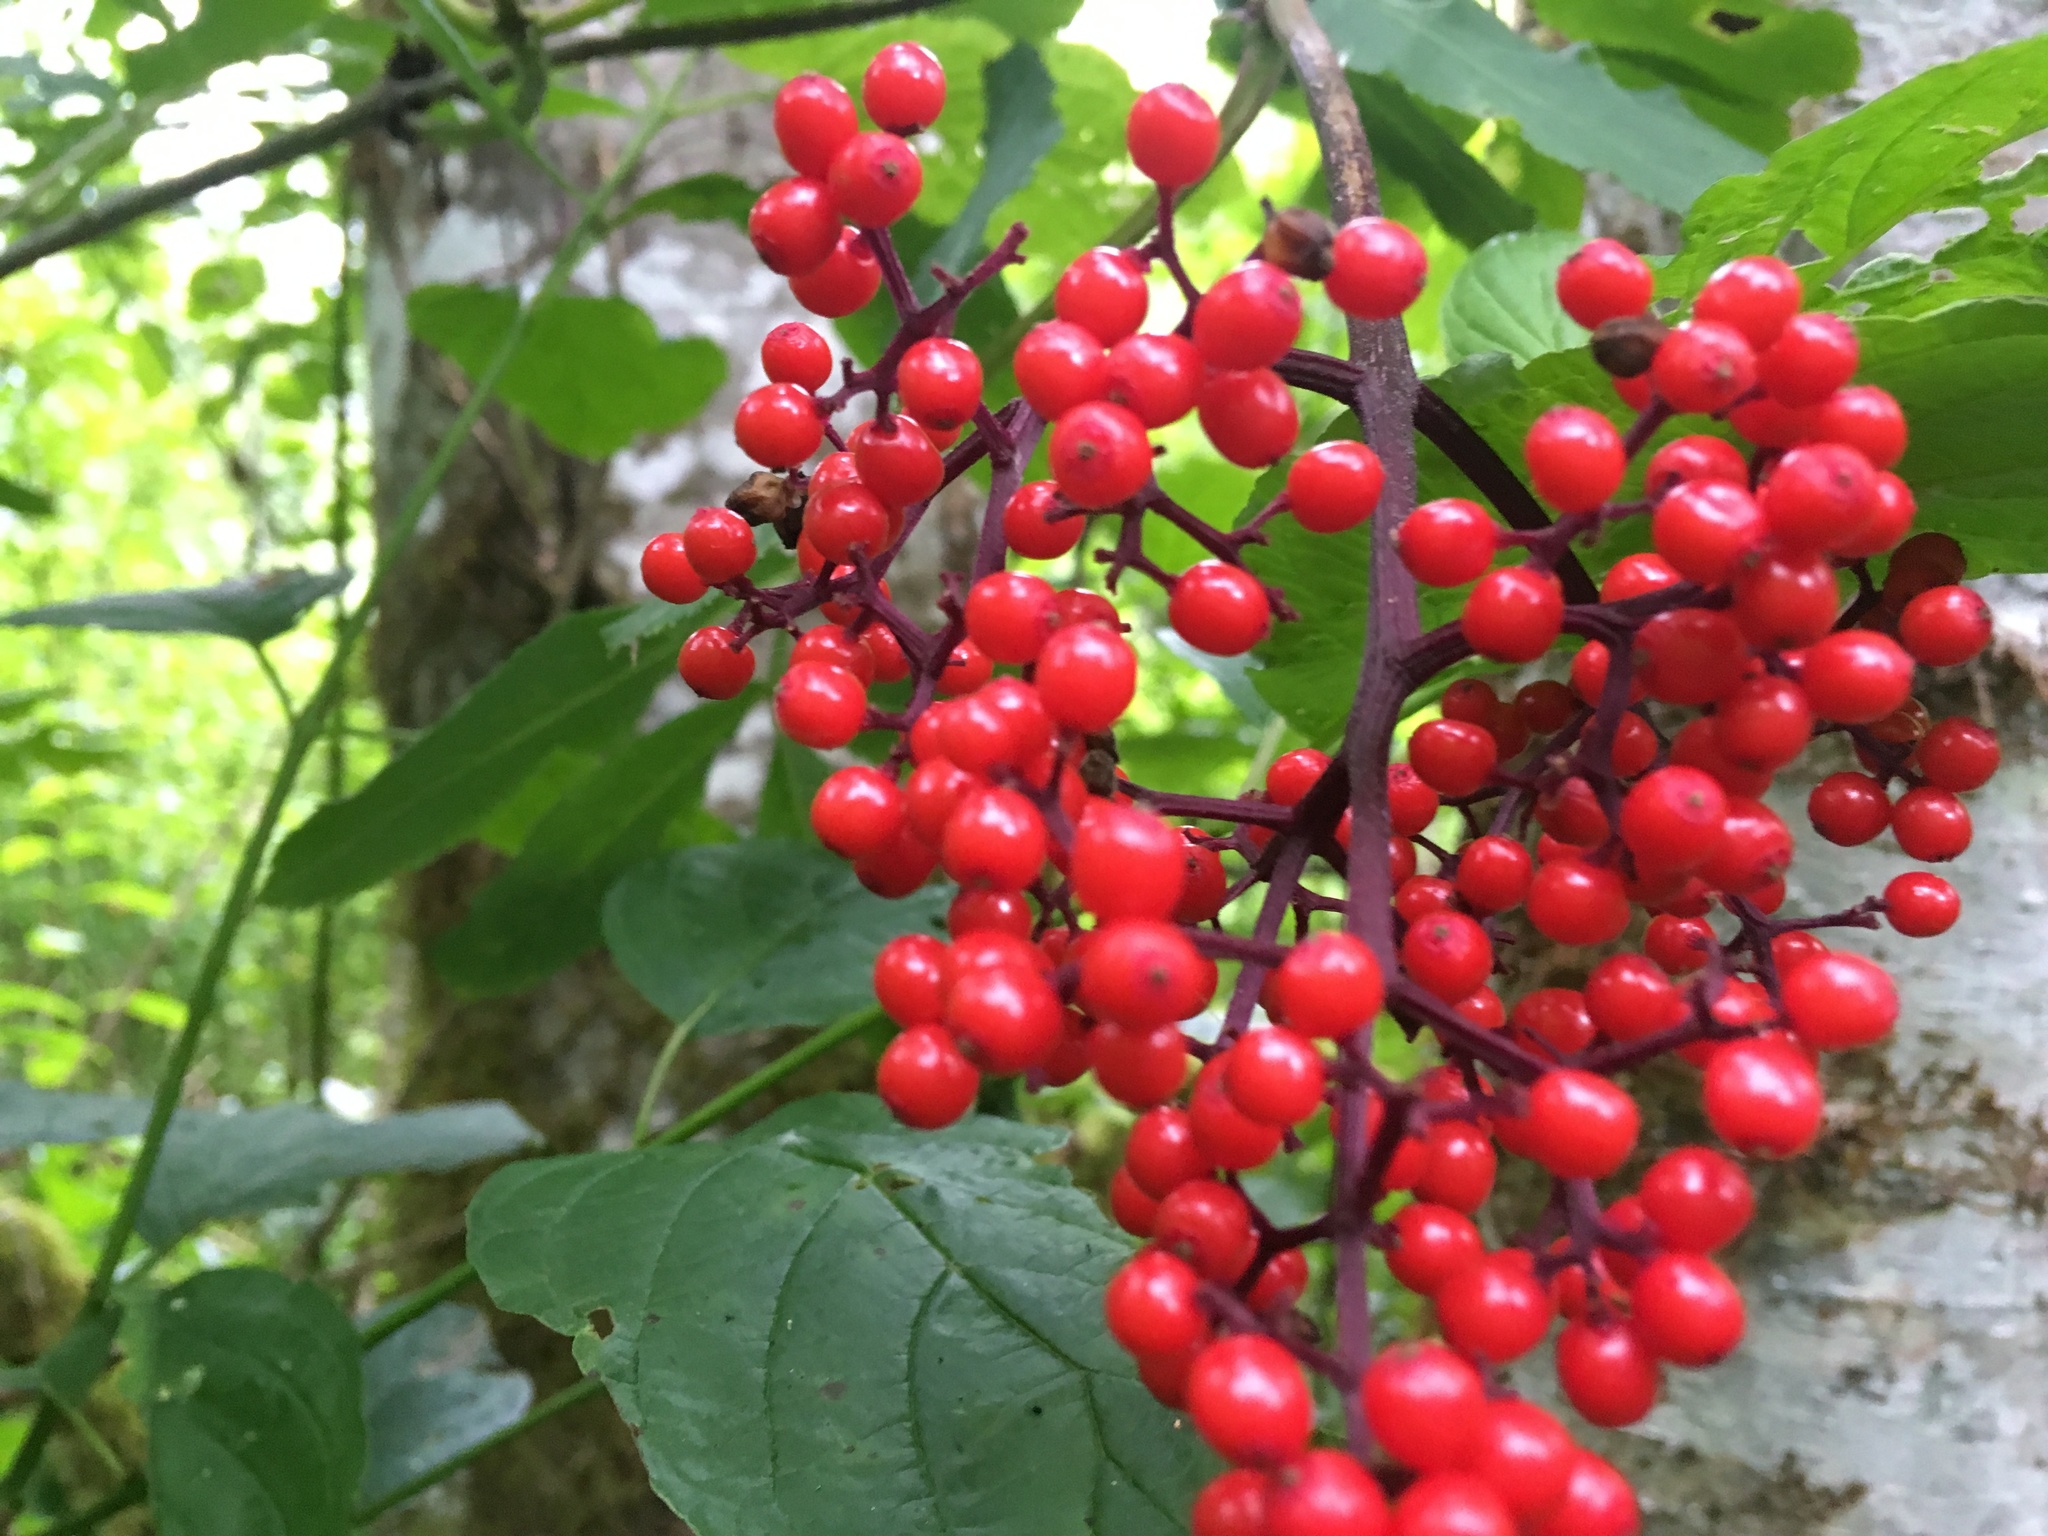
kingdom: Plantae
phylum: Tracheophyta
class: Magnoliopsida
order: Dipsacales
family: Viburnaceae
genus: Sambucus
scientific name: Sambucus racemosa
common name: Red-berried elder
